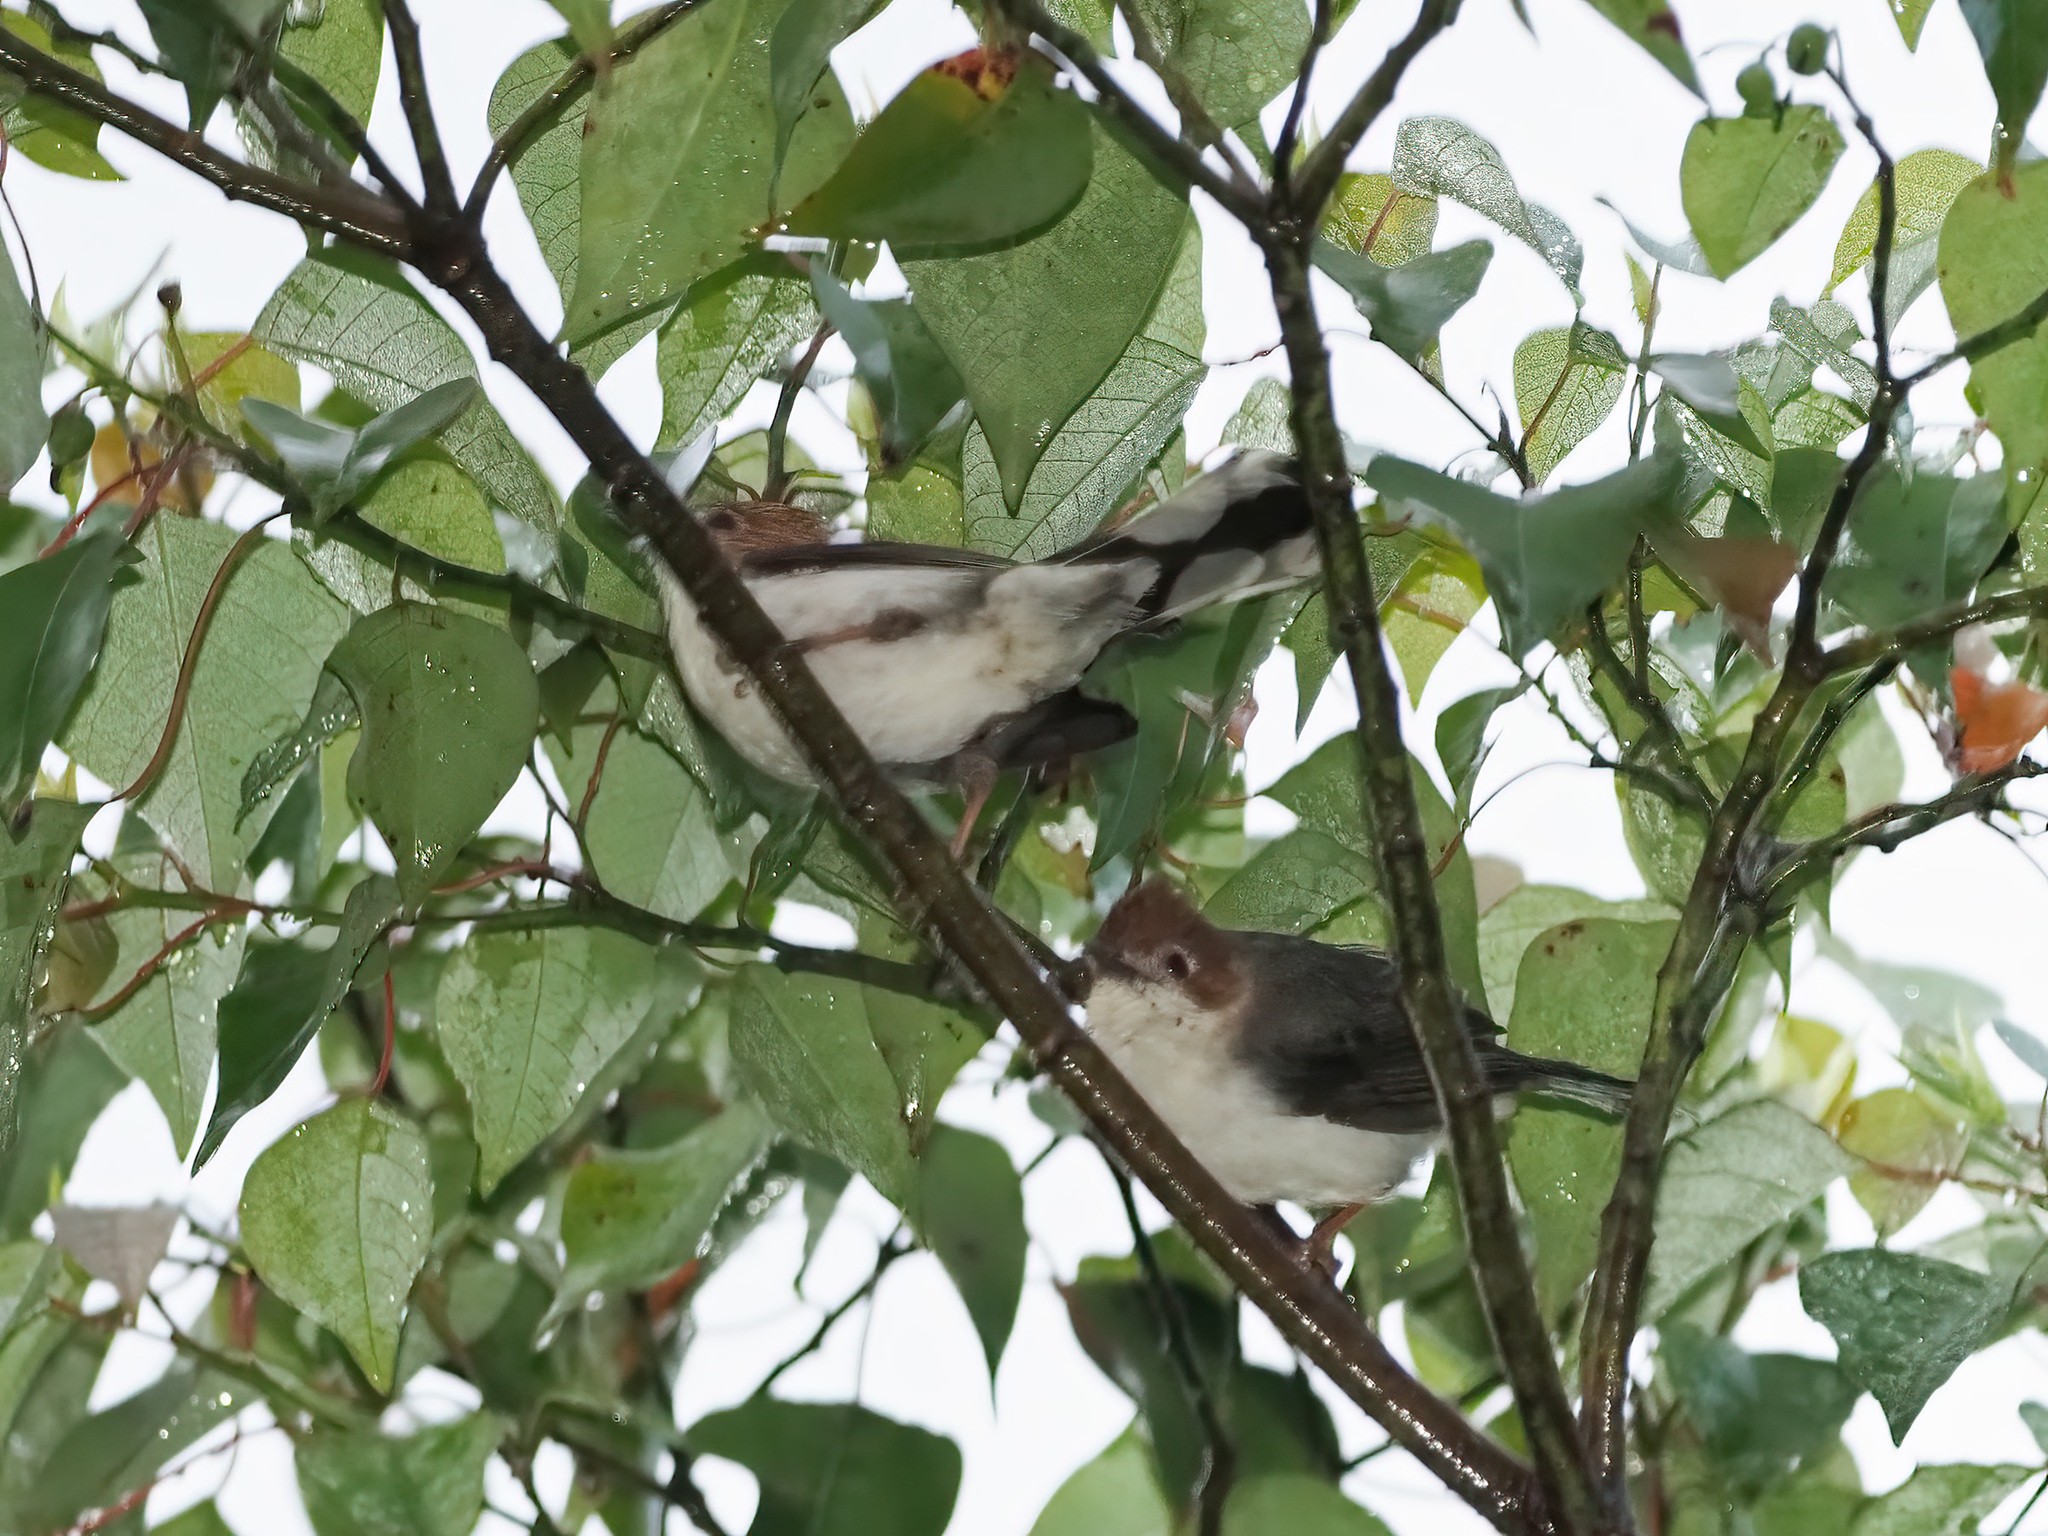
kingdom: Animalia
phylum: Chordata
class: Aves
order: Passeriformes
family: Zosteropidae
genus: Staphida
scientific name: Staphida everetti
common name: Chestnut-crested yuhina
